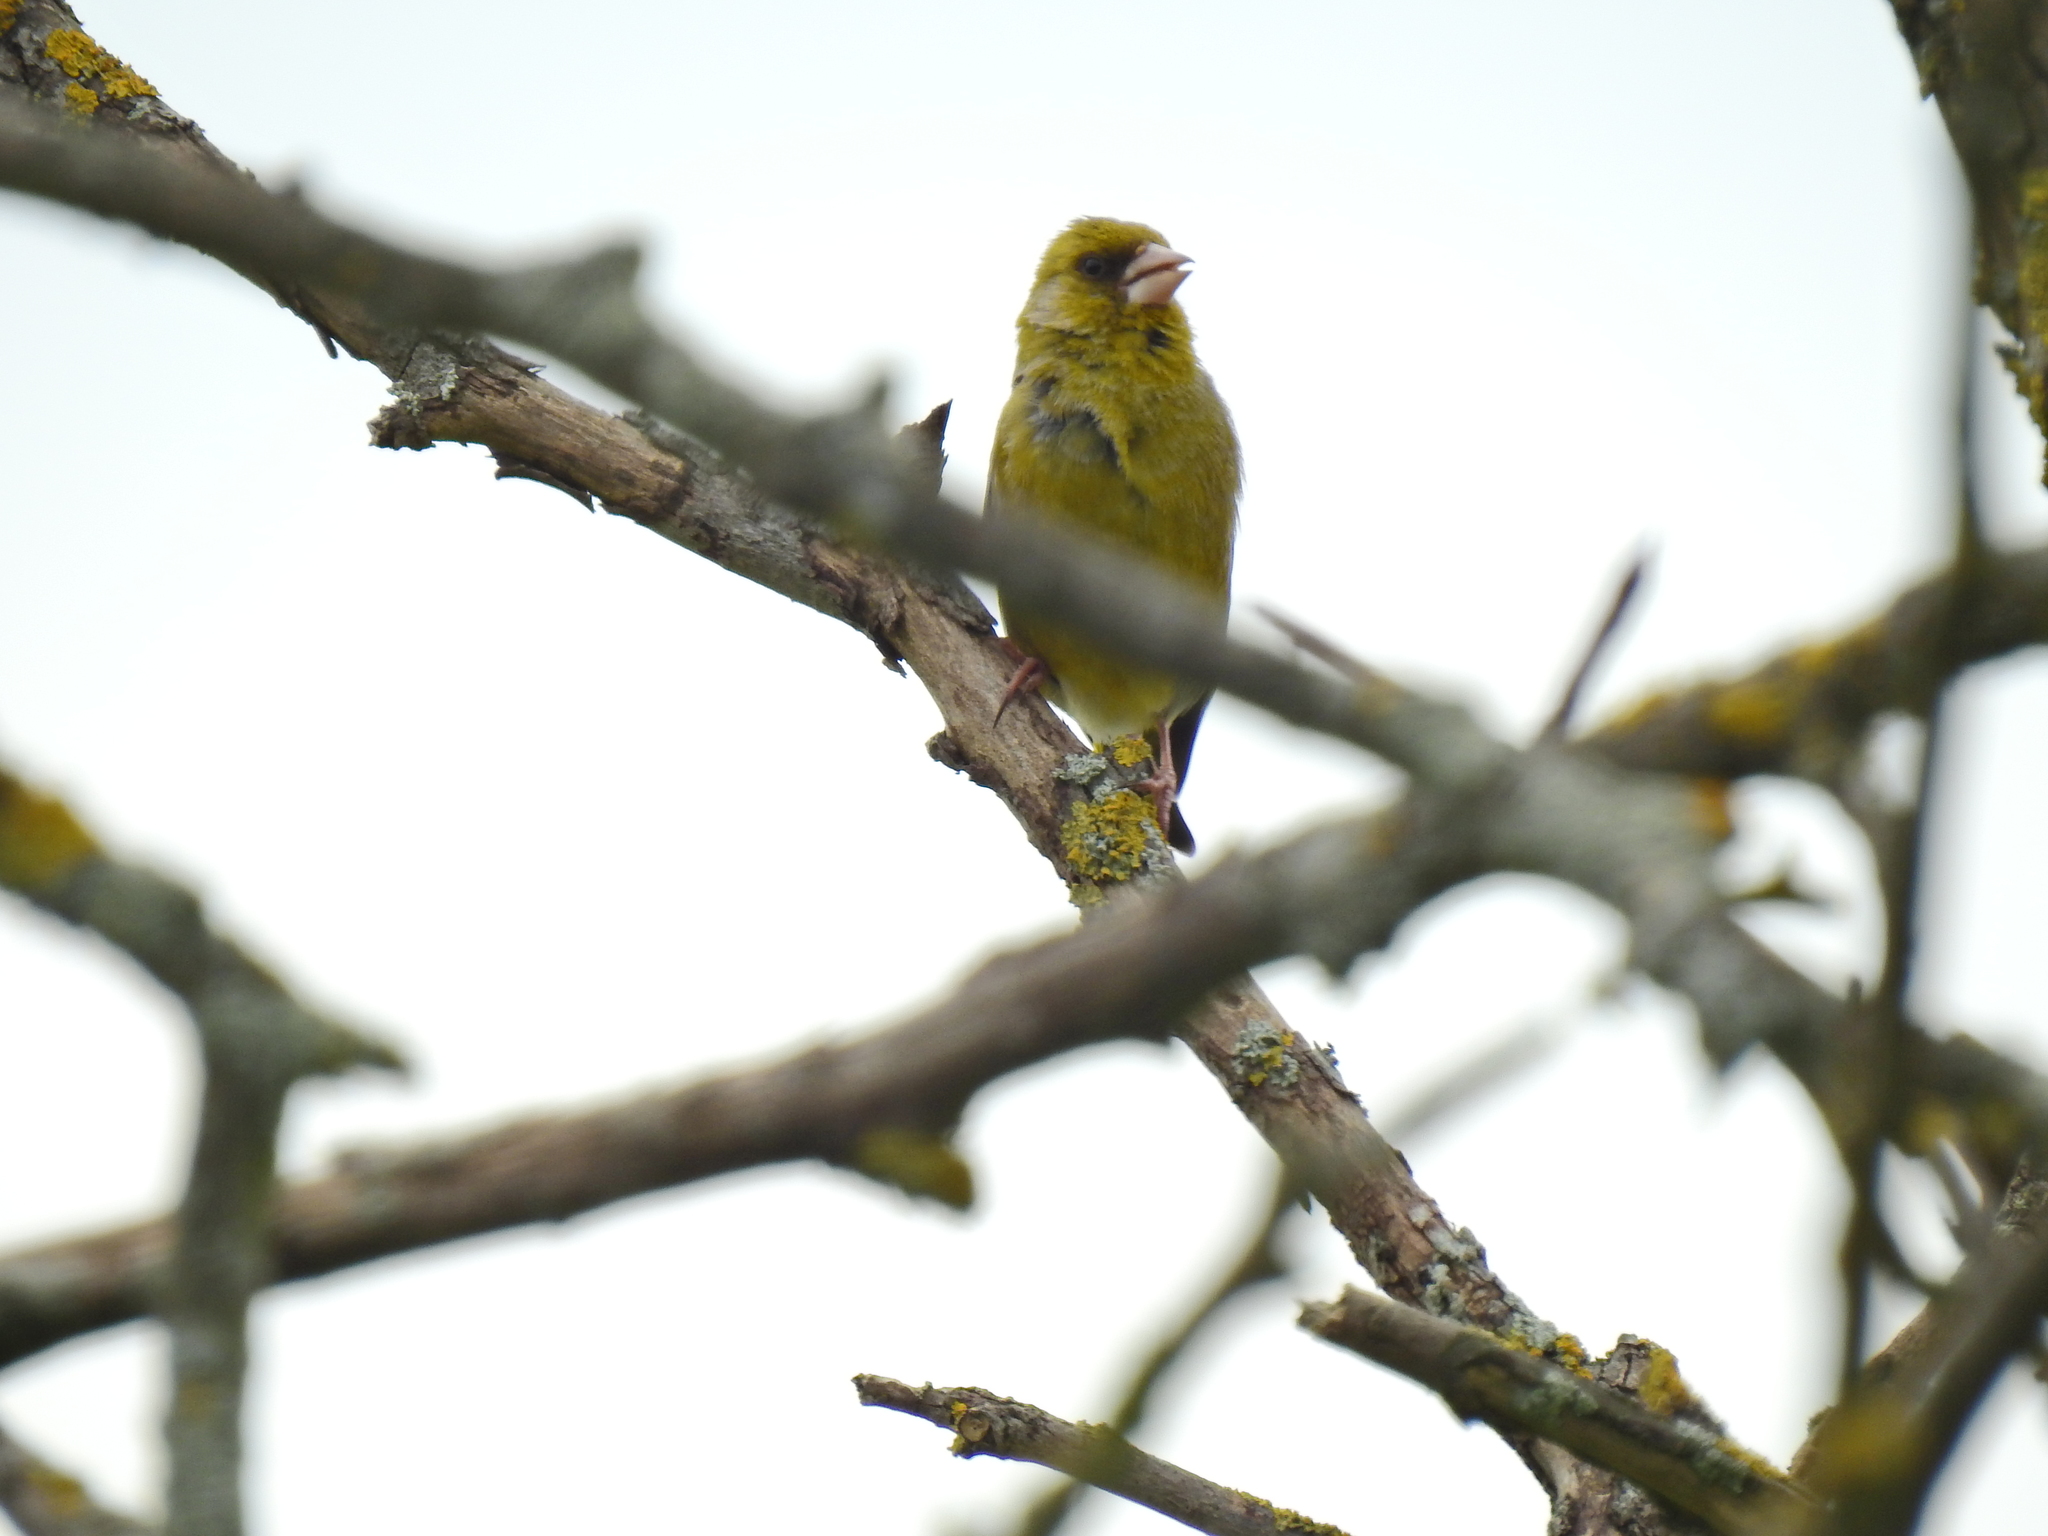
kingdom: Plantae
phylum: Tracheophyta
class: Liliopsida
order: Poales
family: Poaceae
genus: Chloris
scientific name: Chloris chloris
